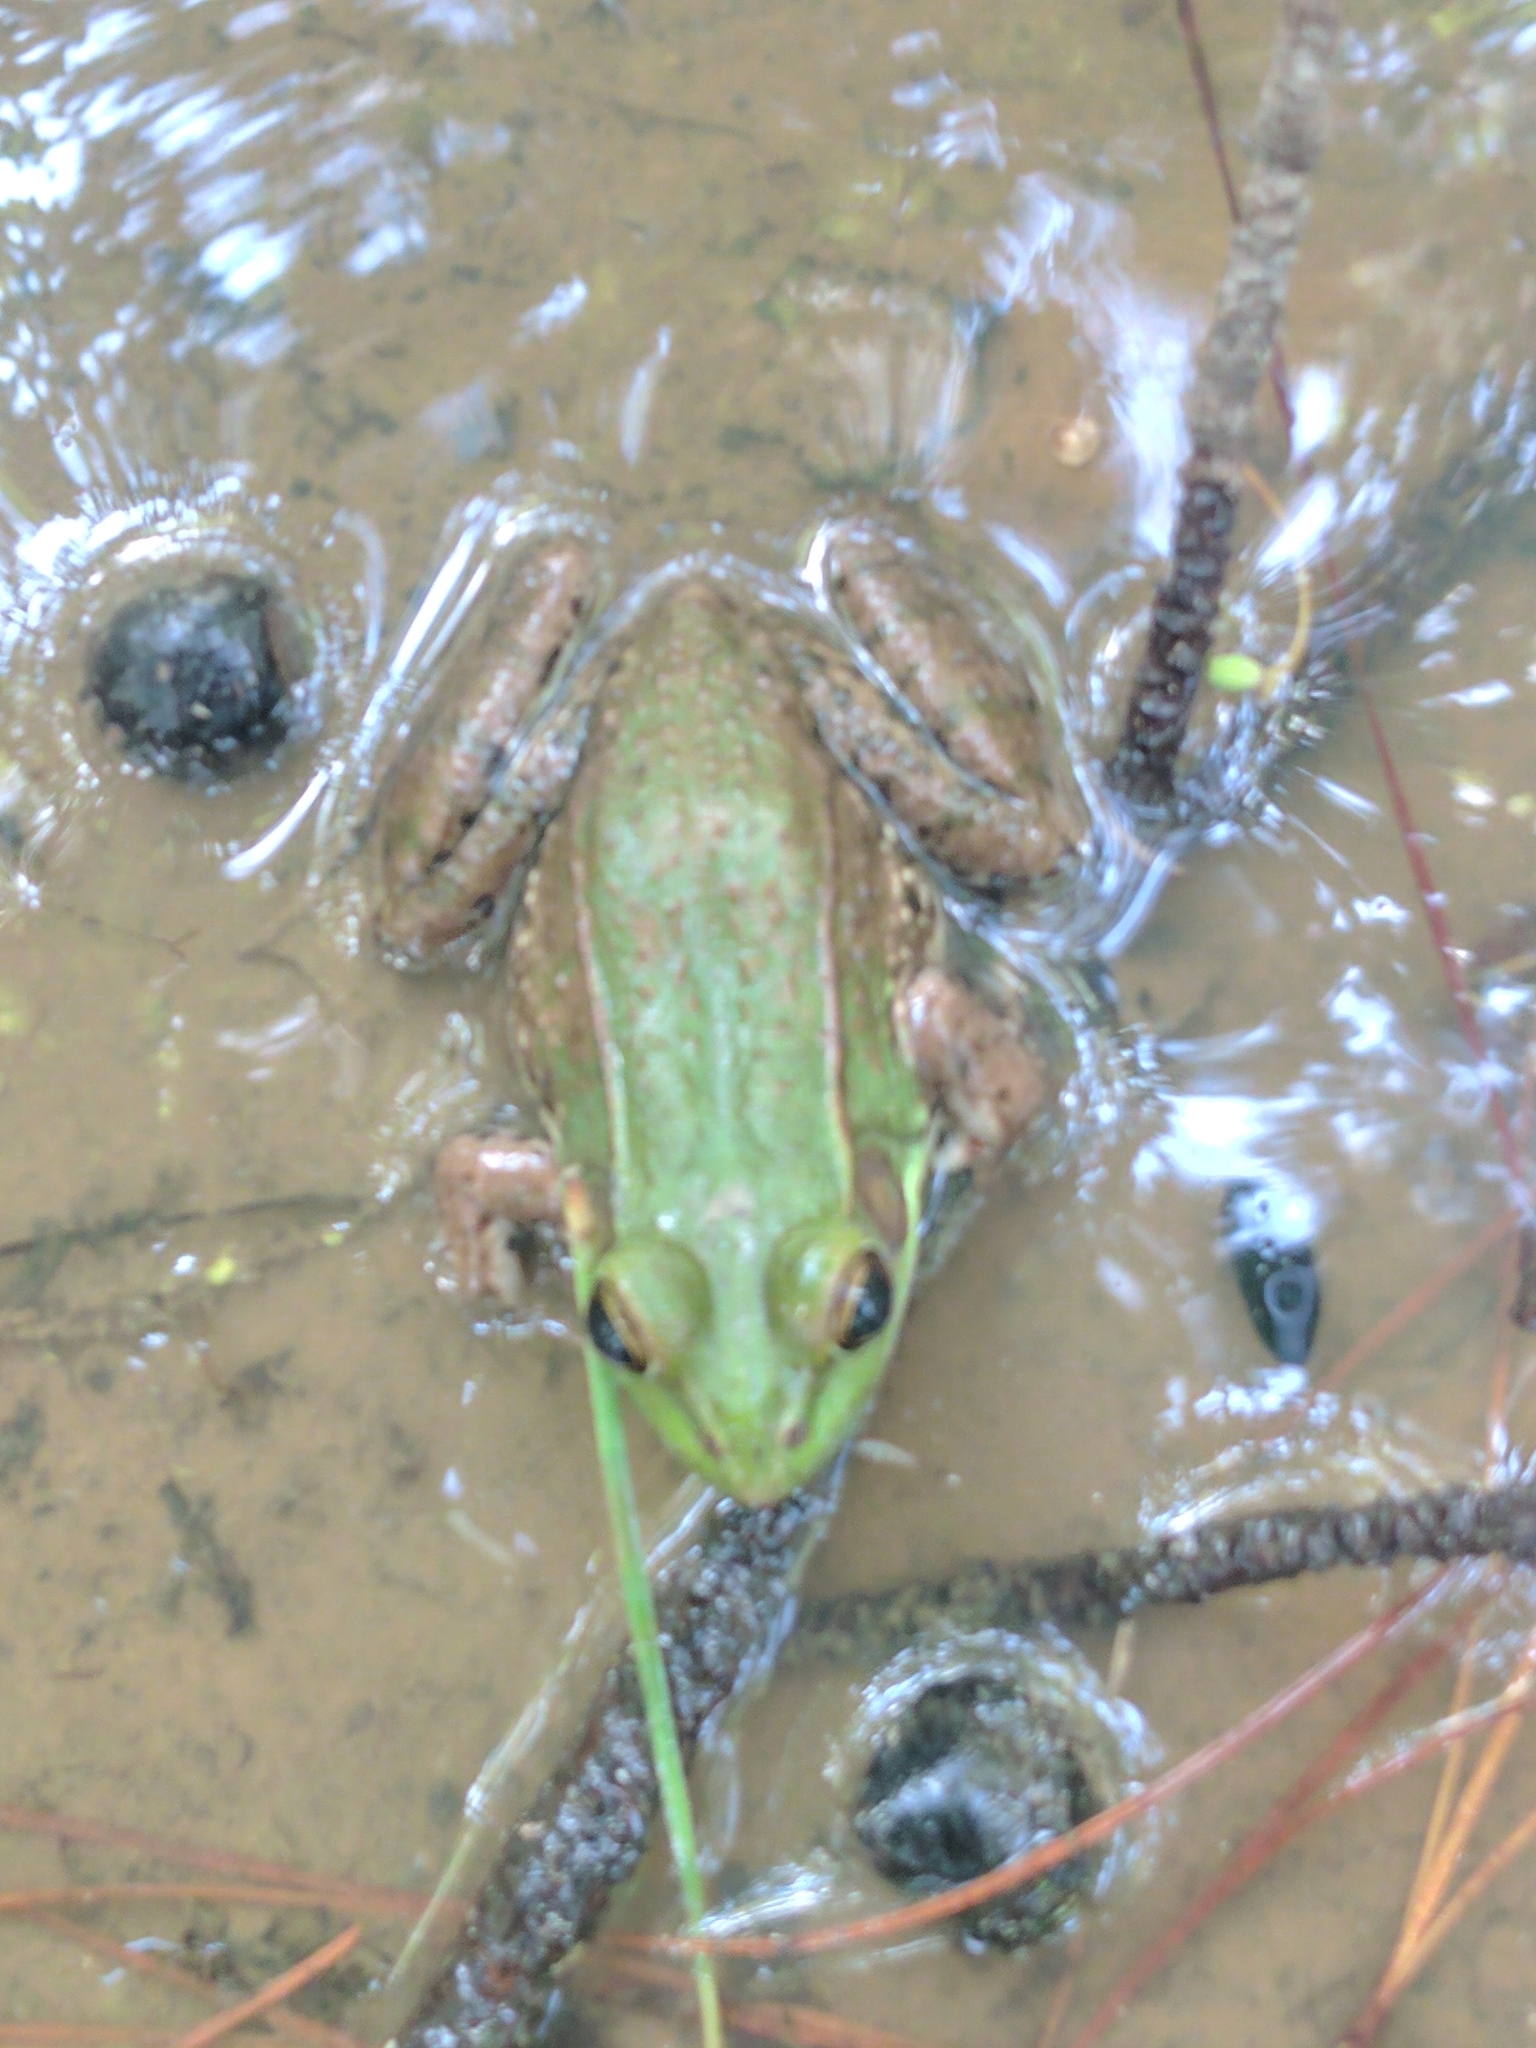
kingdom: Animalia
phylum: Chordata
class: Amphibia
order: Anura
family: Ranidae
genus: Lithobates
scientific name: Lithobates clamitans
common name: Green frog
